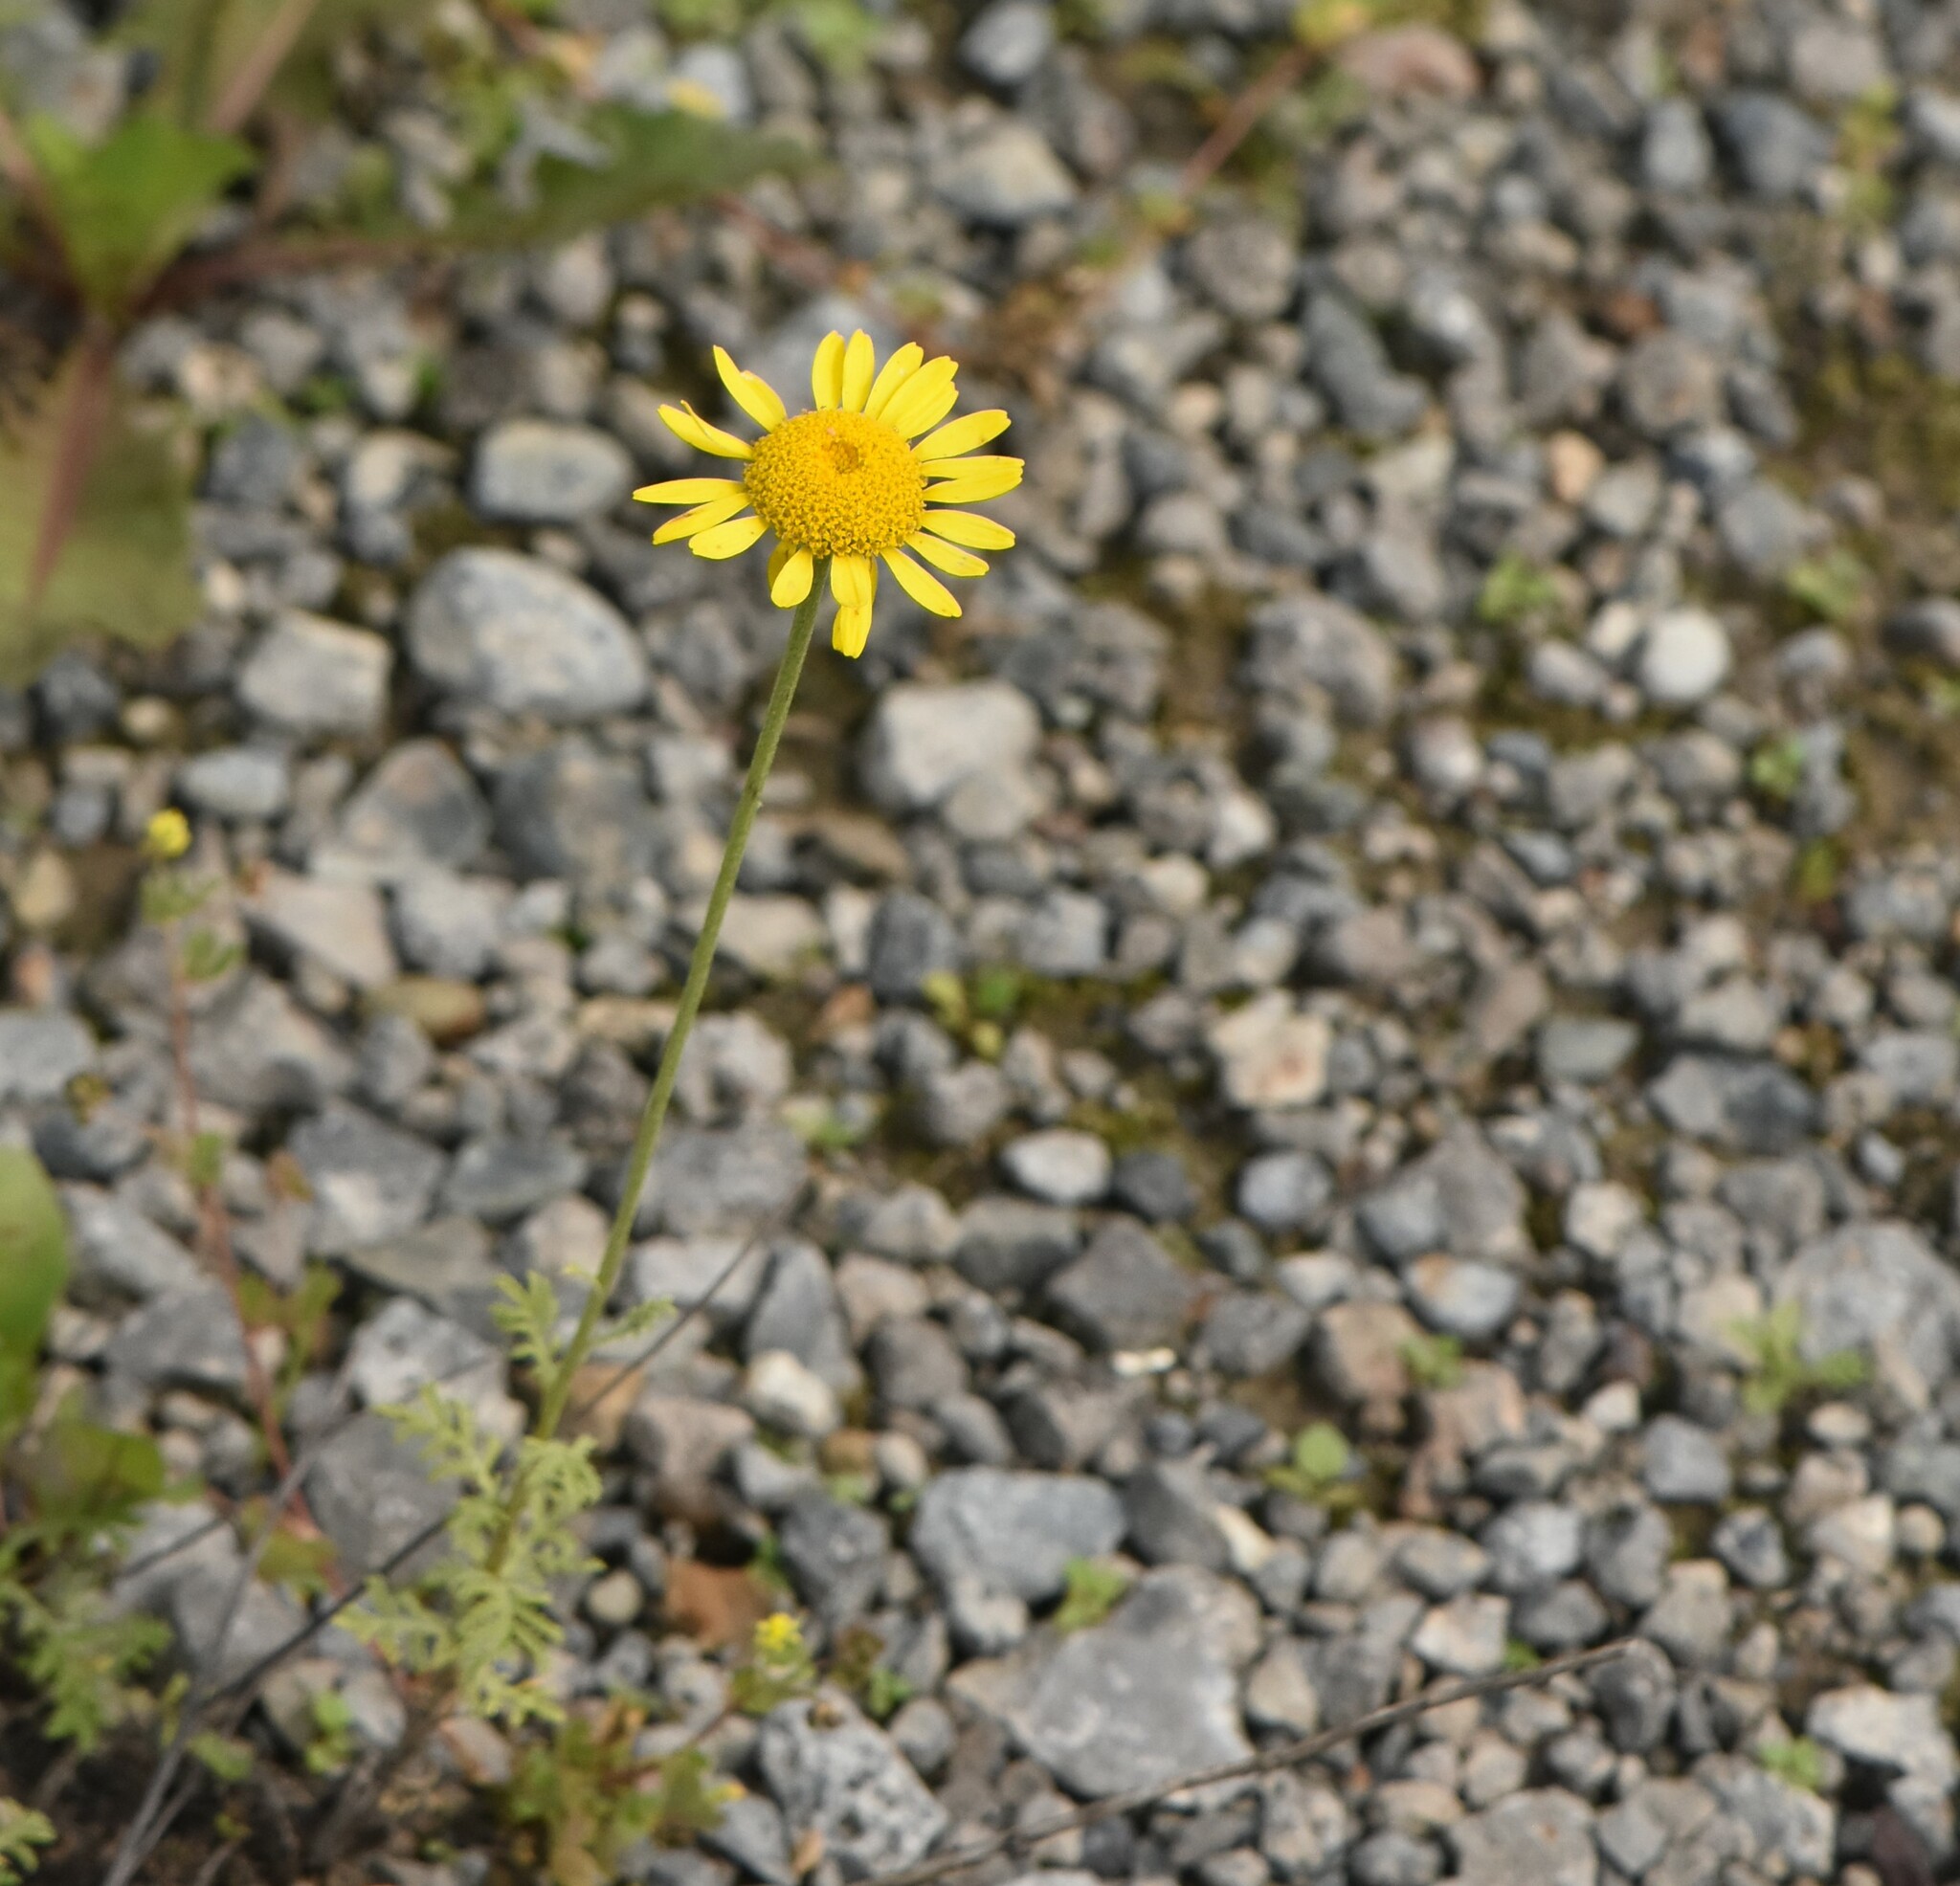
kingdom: Plantae
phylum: Tracheophyta
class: Magnoliopsida
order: Asterales
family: Asteraceae
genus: Cota
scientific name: Cota tinctoria
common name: Golden chamomile
